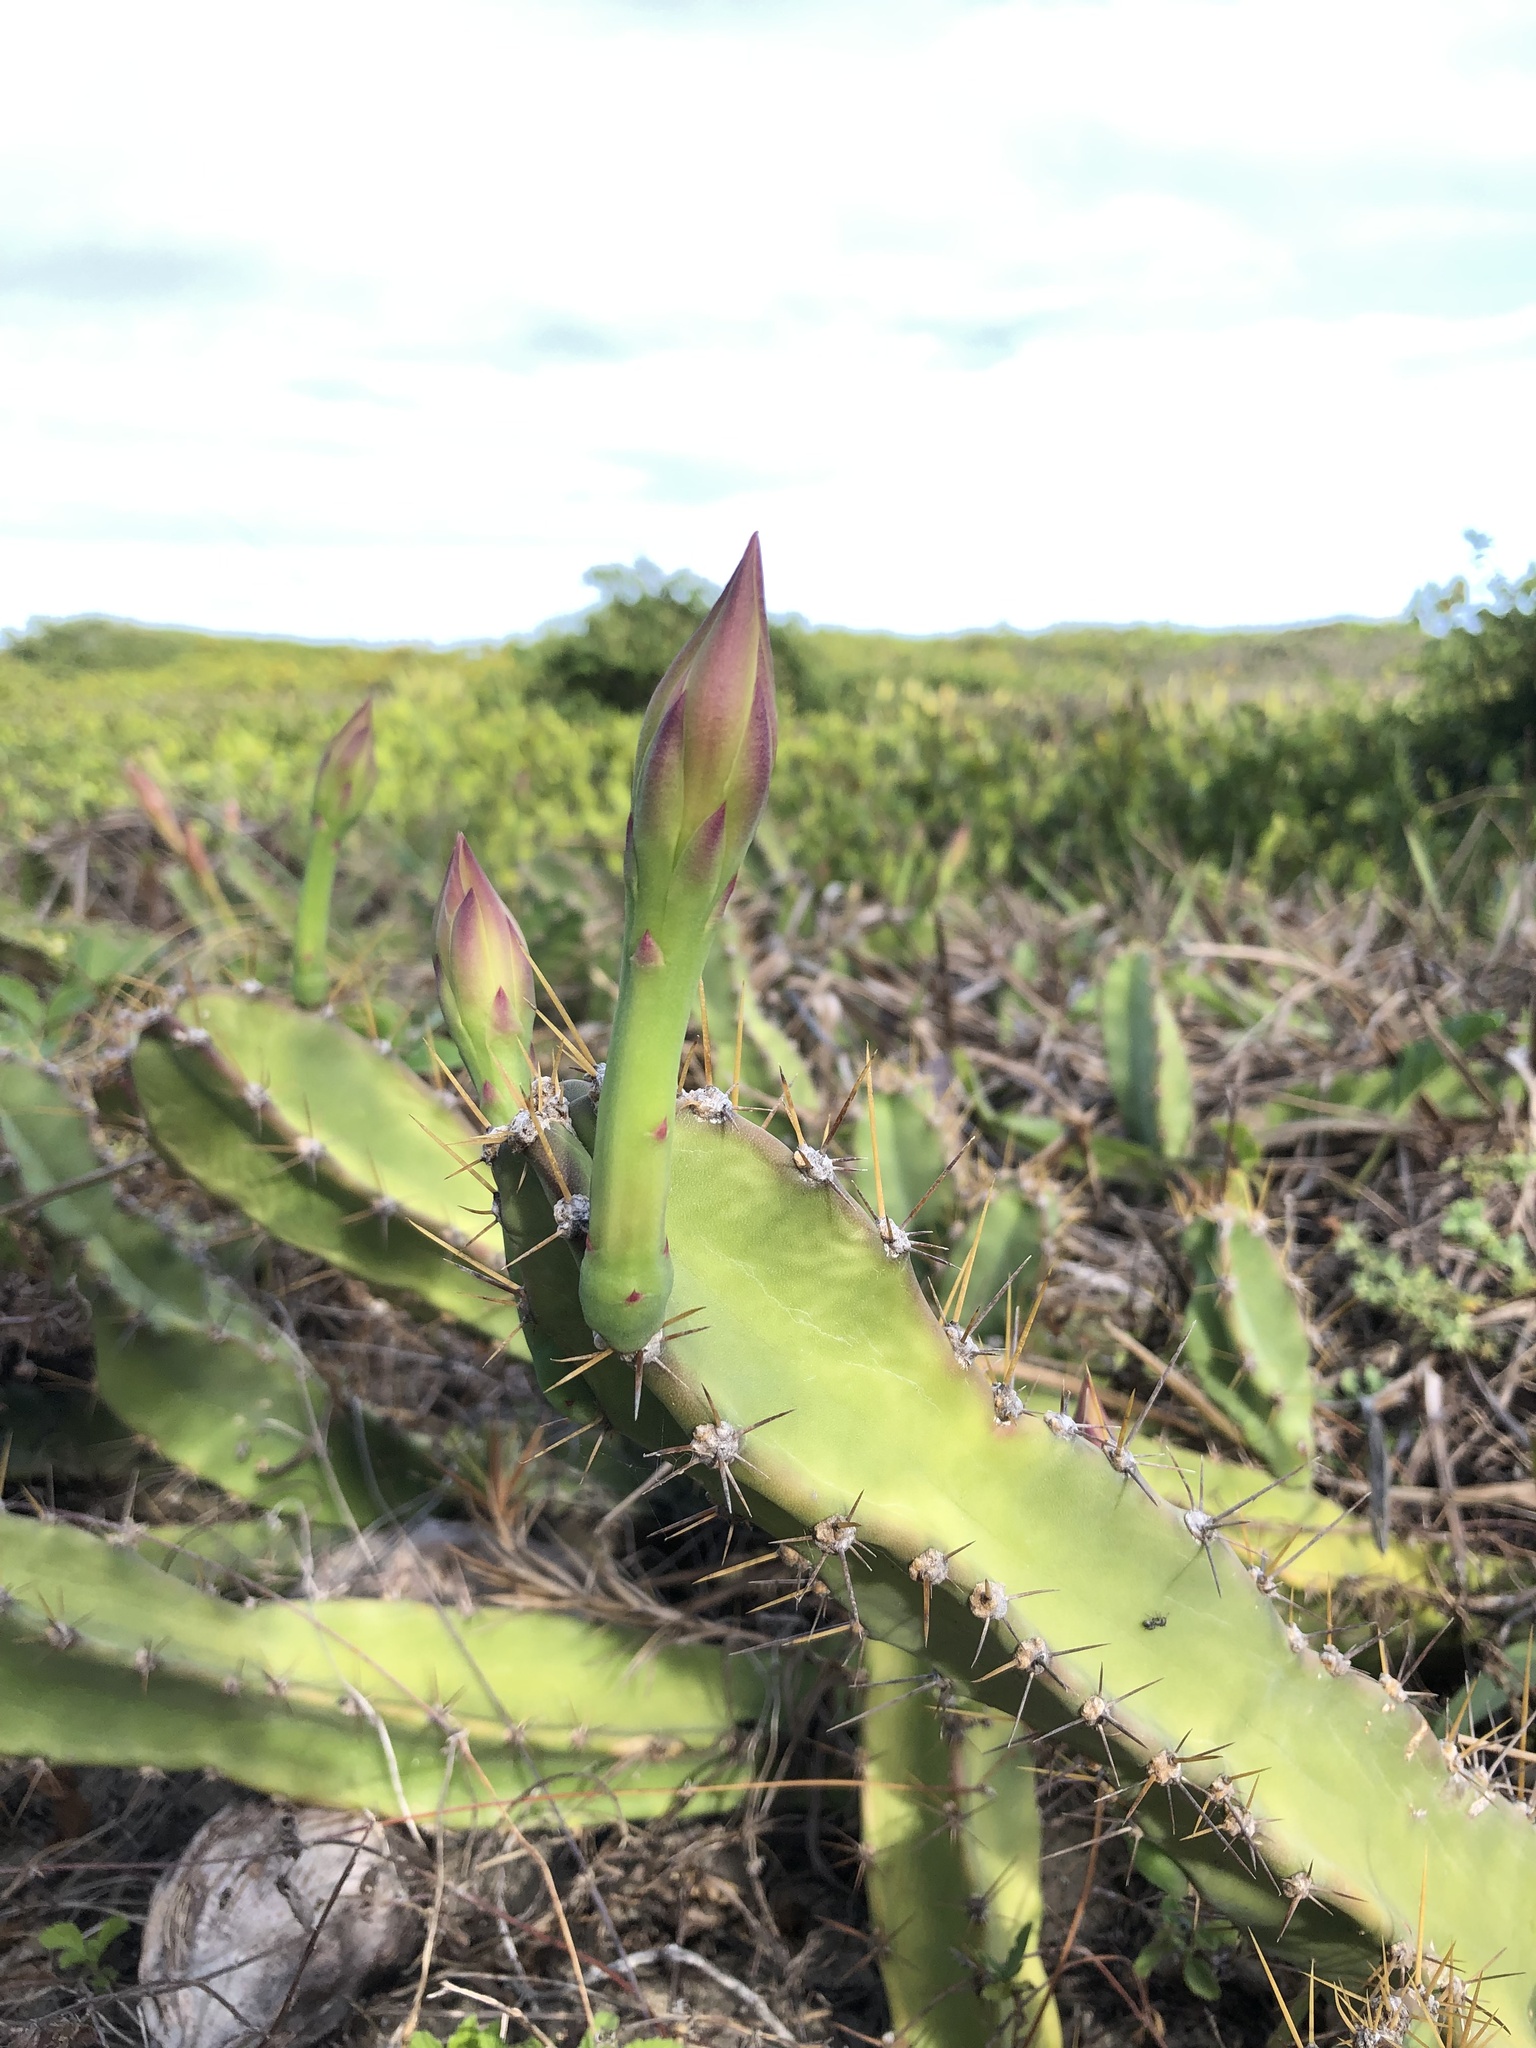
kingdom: Plantae
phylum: Tracheophyta
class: Magnoliopsida
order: Caryophyllales
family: Cactaceae
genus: Cereus
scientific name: Cereus fernambucensis
